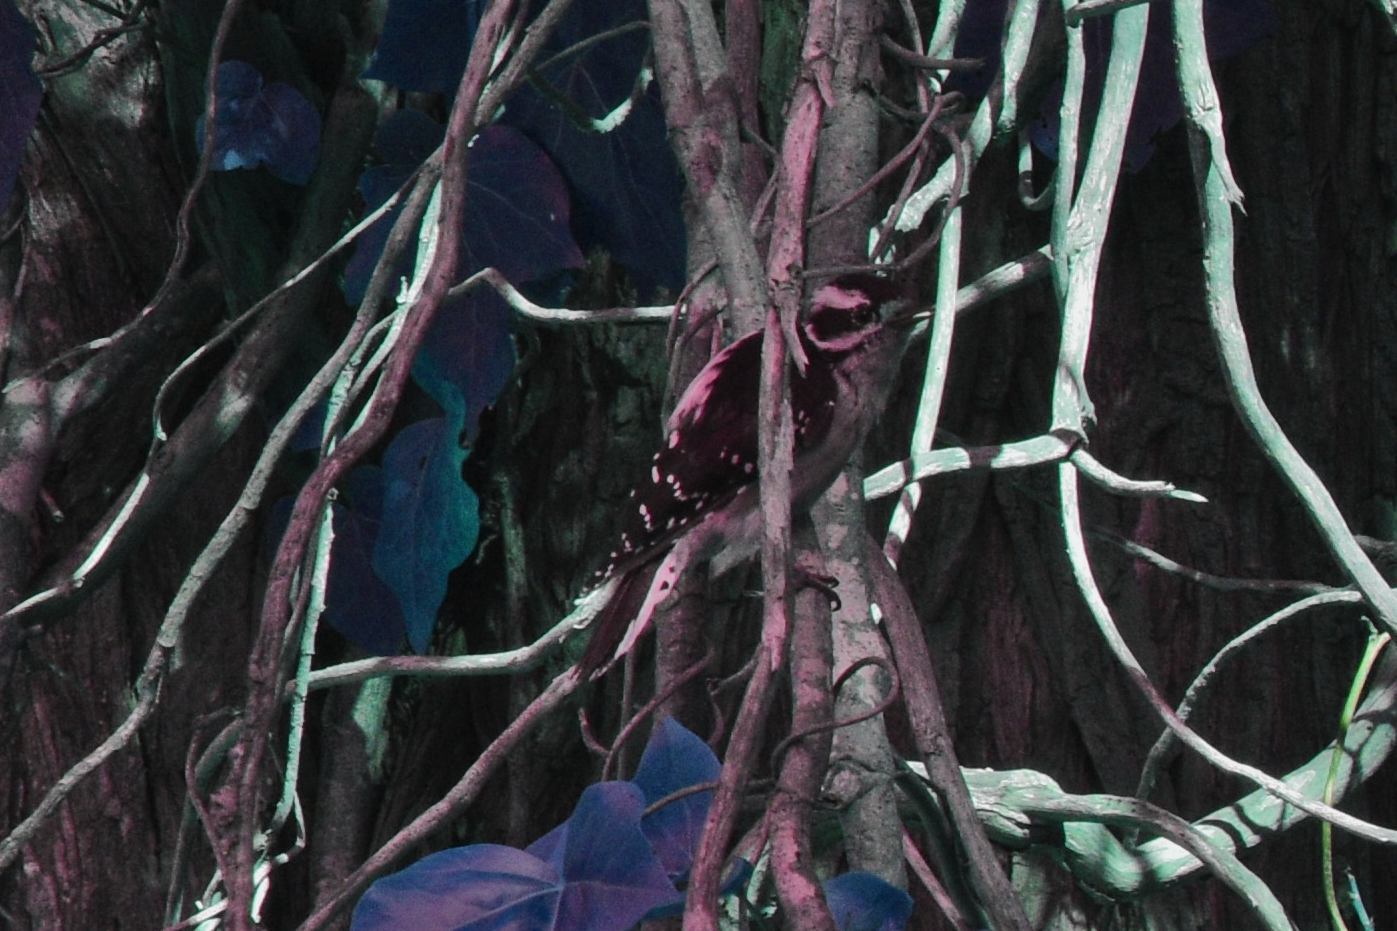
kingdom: Animalia
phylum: Chordata
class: Aves
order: Piciformes
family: Picidae
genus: Dryobates
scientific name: Dryobates pubescens
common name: Downy woodpecker
